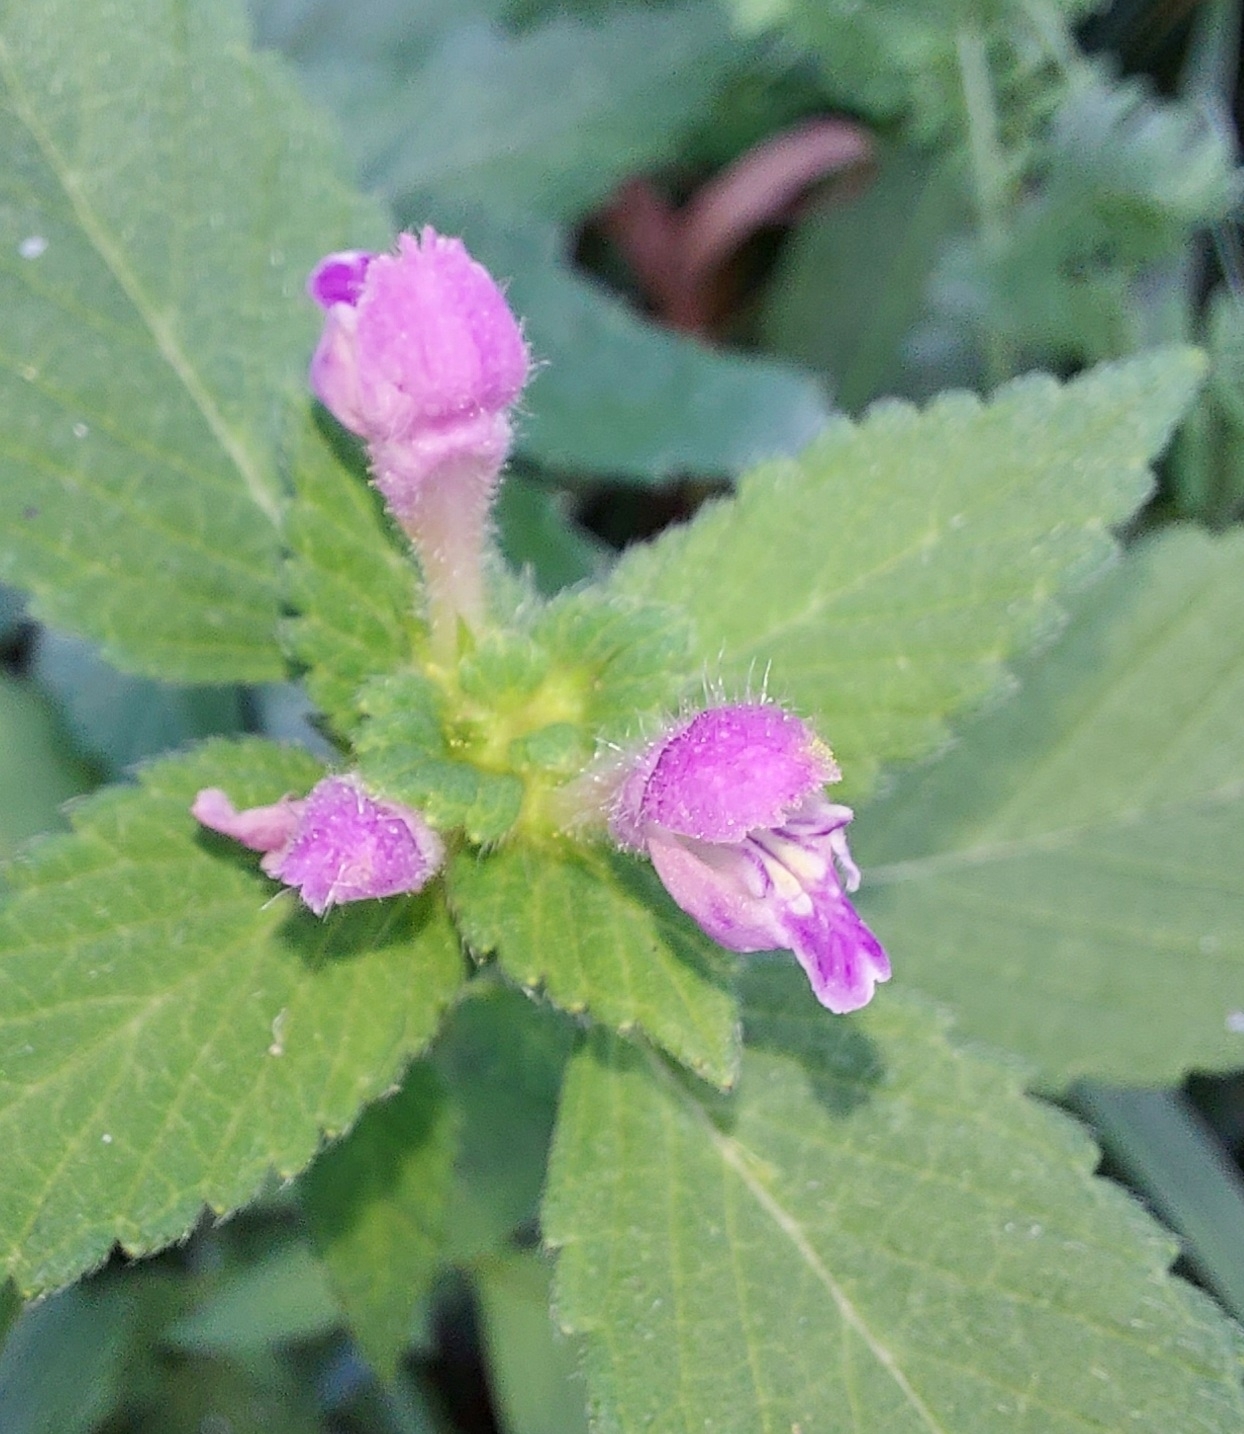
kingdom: Plantae
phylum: Tracheophyta
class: Magnoliopsida
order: Lamiales
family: Lamiaceae
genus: Galeopsis
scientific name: Galeopsis bifida
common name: Bifid hemp-nettle
